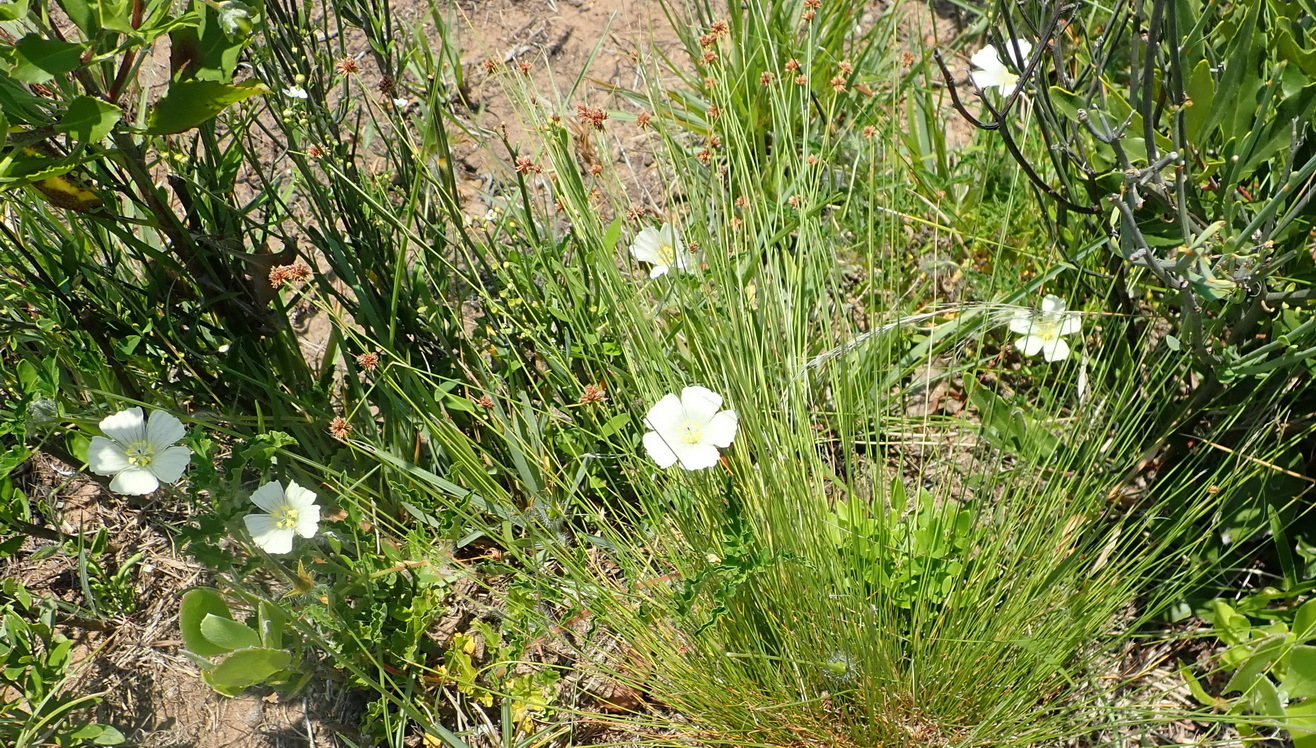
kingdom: Plantae
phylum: Tracheophyta
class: Magnoliopsida
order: Geraniales
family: Geraniaceae
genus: Monsonia
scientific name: Monsonia emarginata
